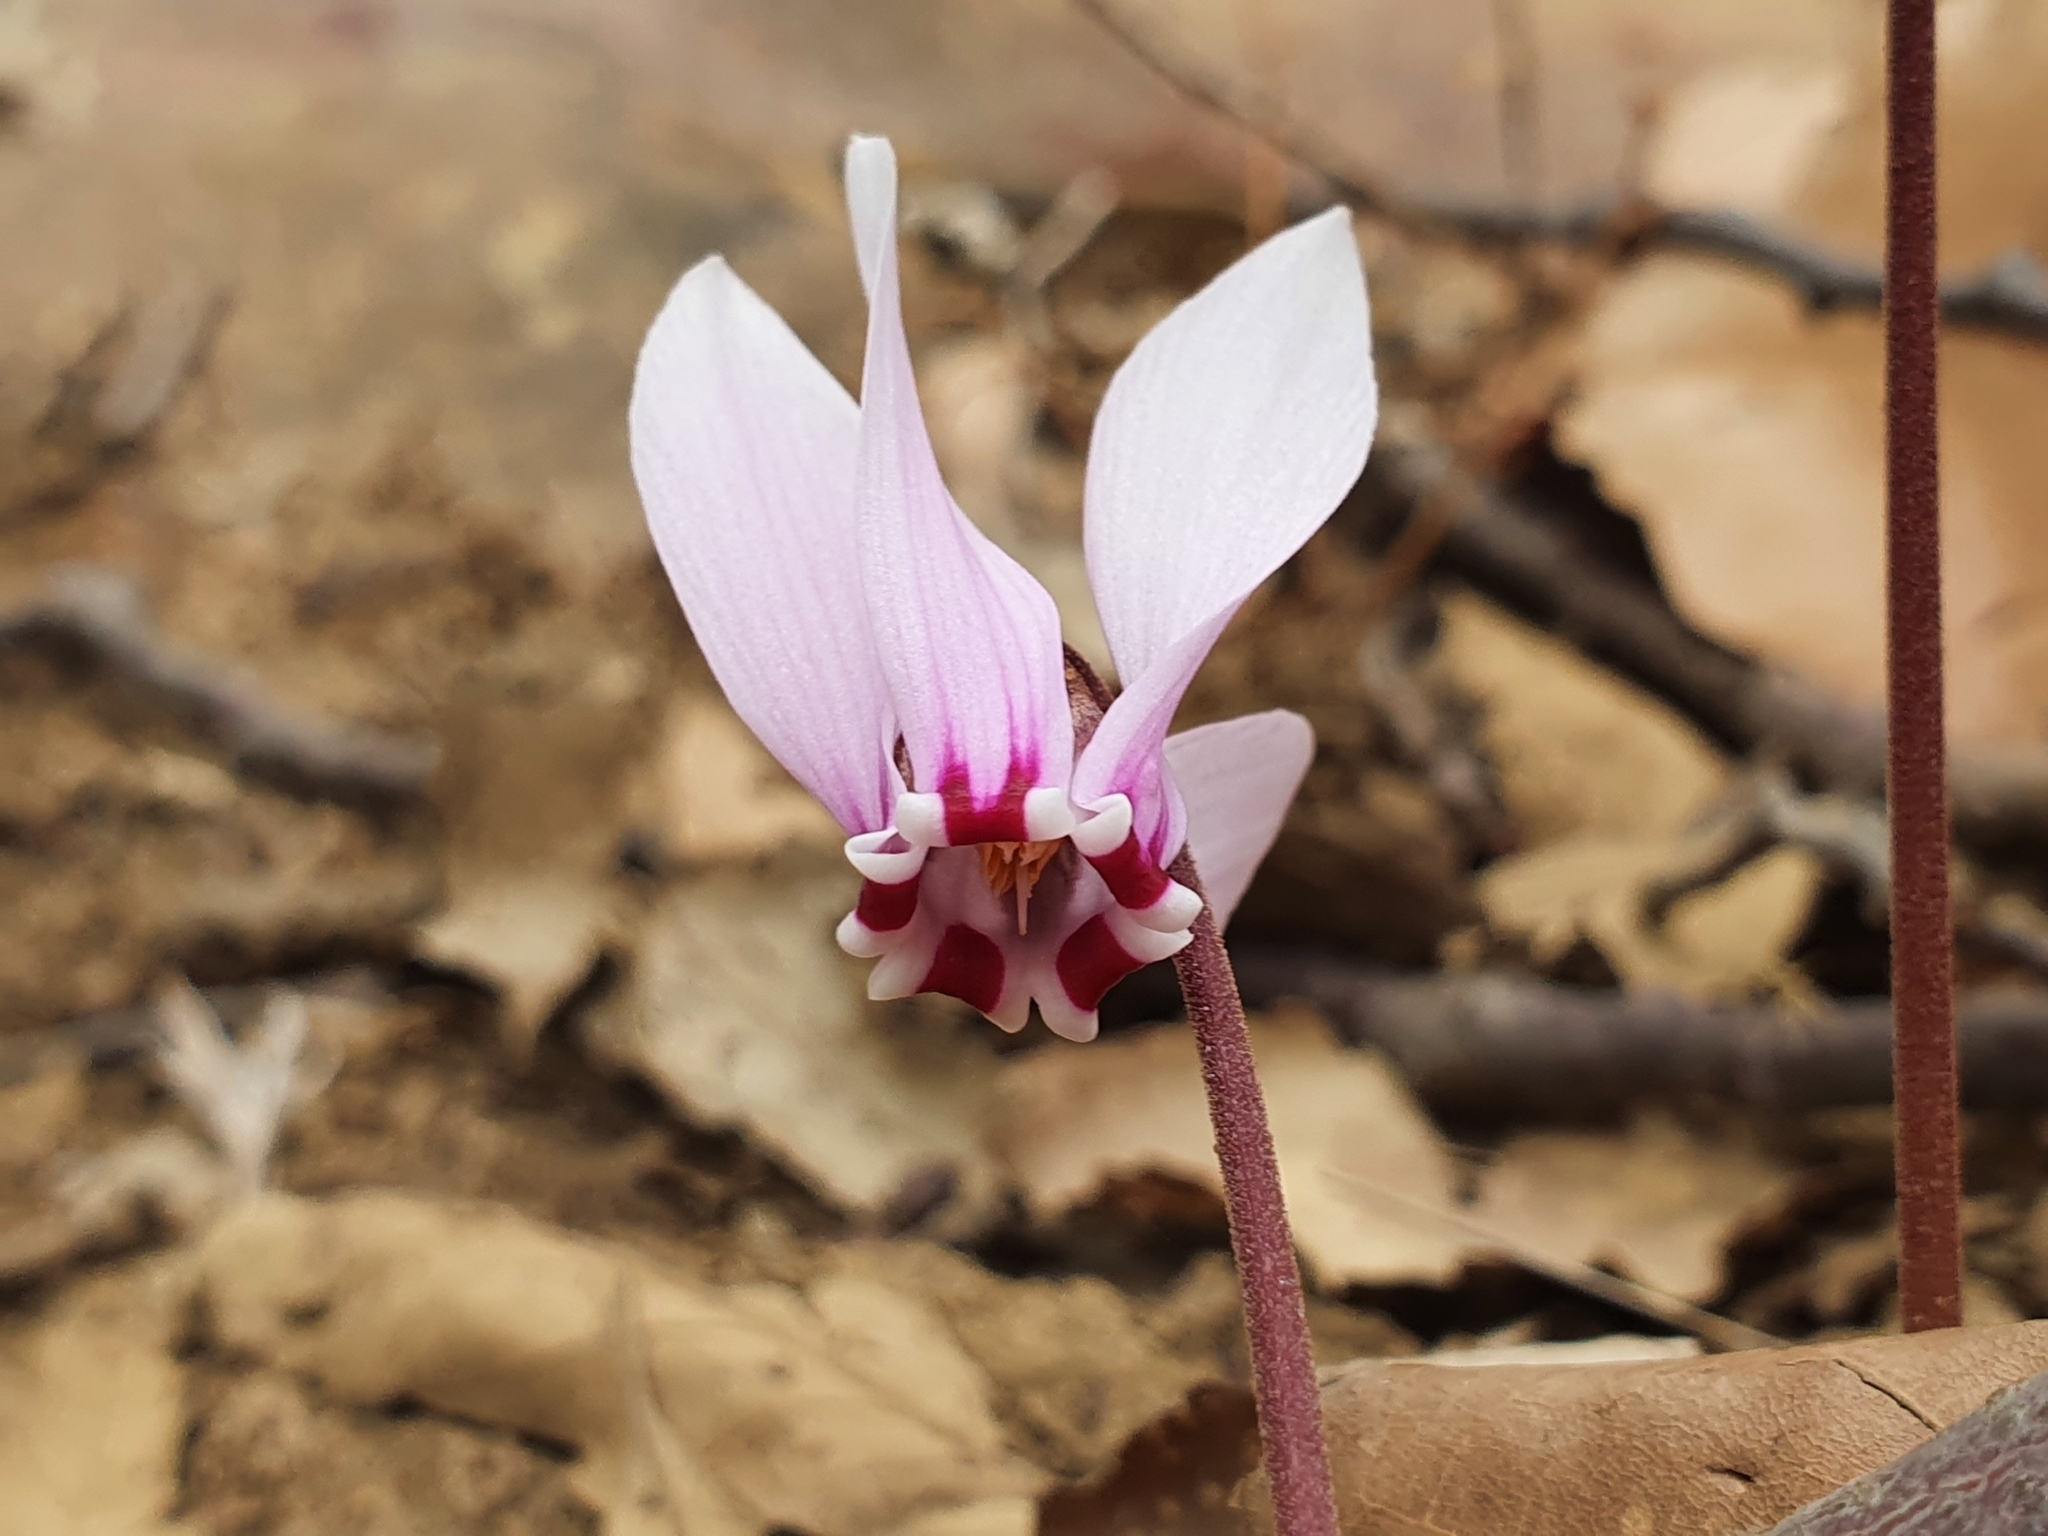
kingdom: Plantae
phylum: Tracheophyta
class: Magnoliopsida
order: Ericales
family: Primulaceae
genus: Cyclamen
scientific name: Cyclamen africanum
